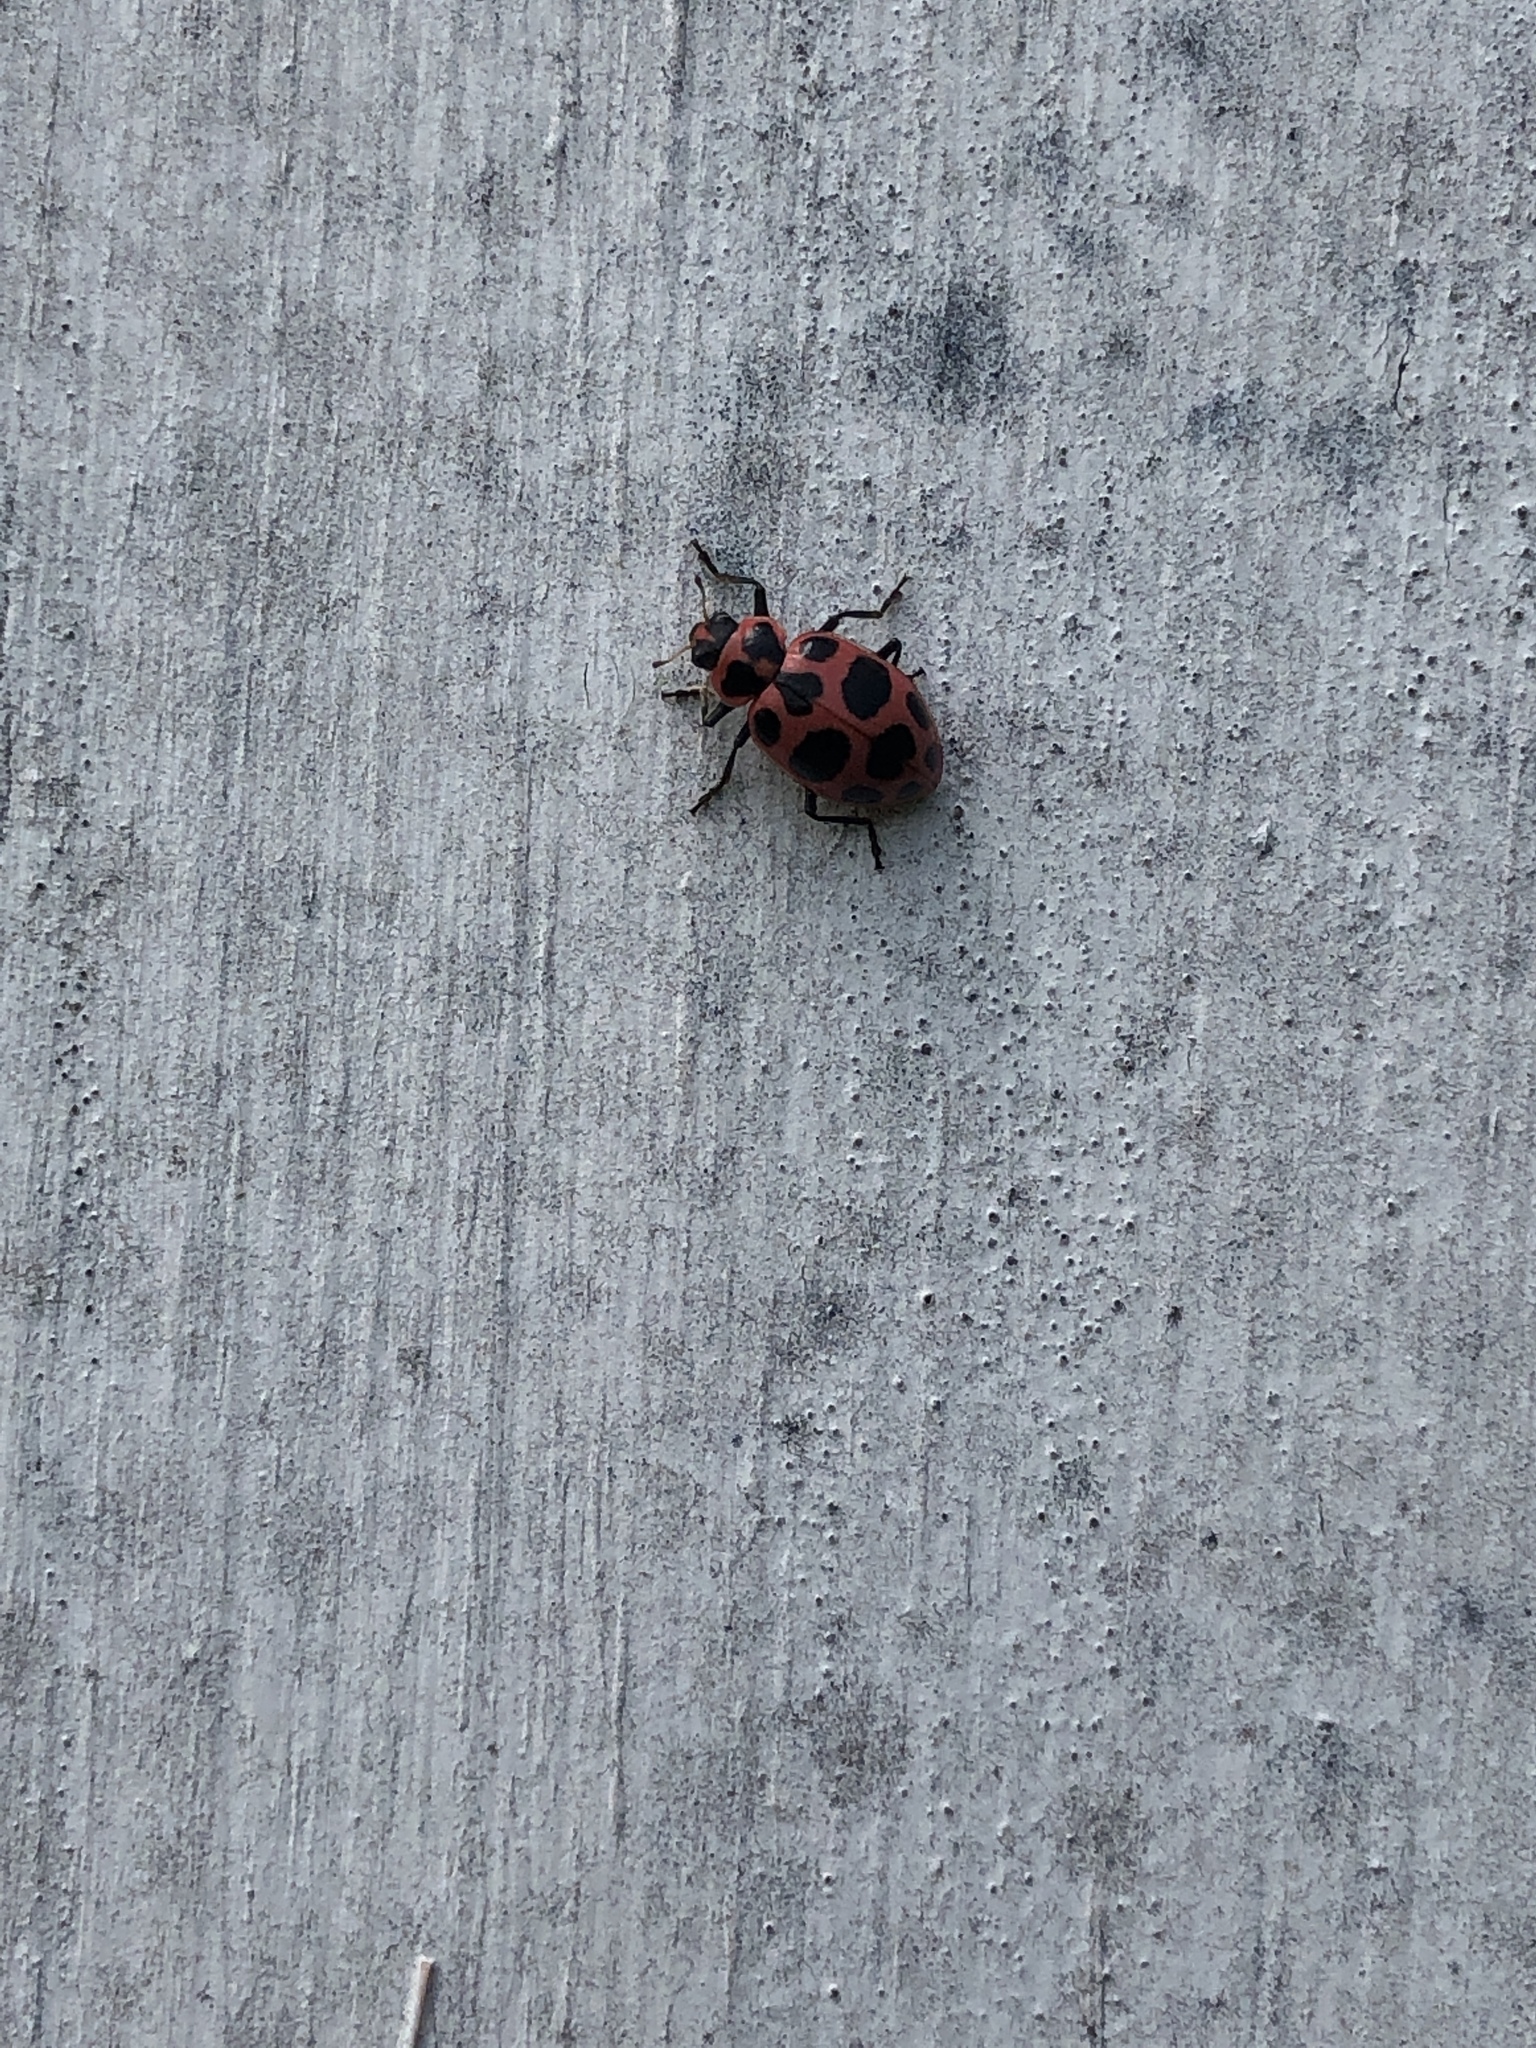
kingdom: Animalia
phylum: Arthropoda
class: Insecta
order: Coleoptera
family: Coccinellidae
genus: Coleomegilla
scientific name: Coleomegilla maculata
